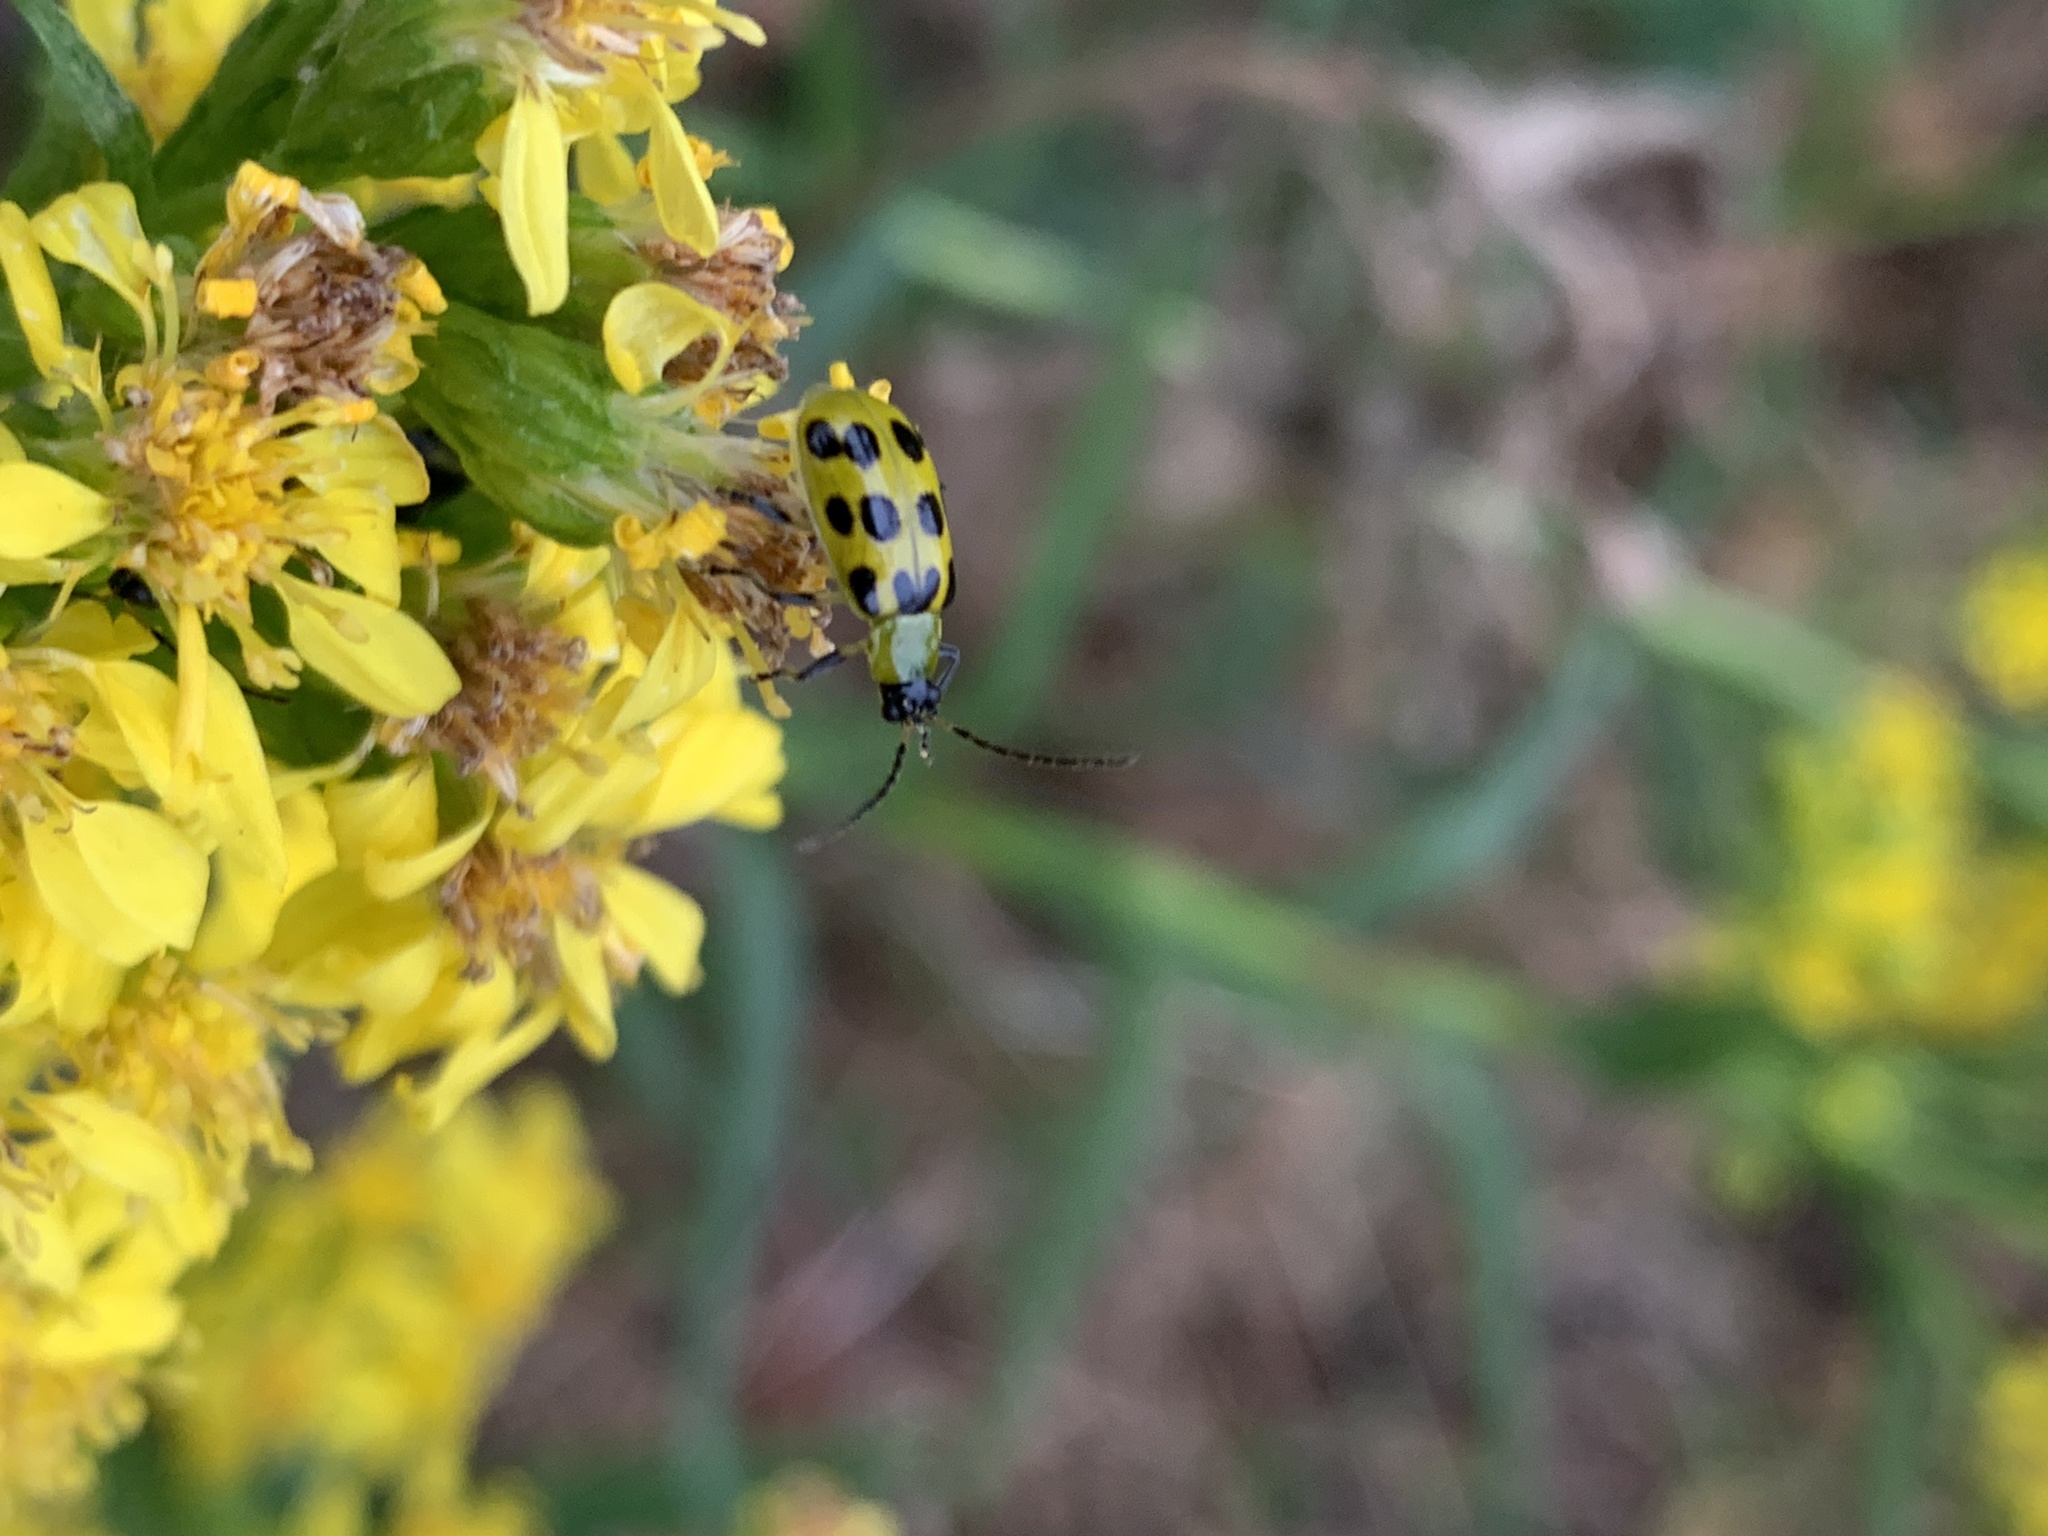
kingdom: Animalia
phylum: Arthropoda
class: Insecta
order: Coleoptera
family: Chrysomelidae
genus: Diabrotica
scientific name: Diabrotica undecimpunctata
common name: Spotted cucumber beetle
